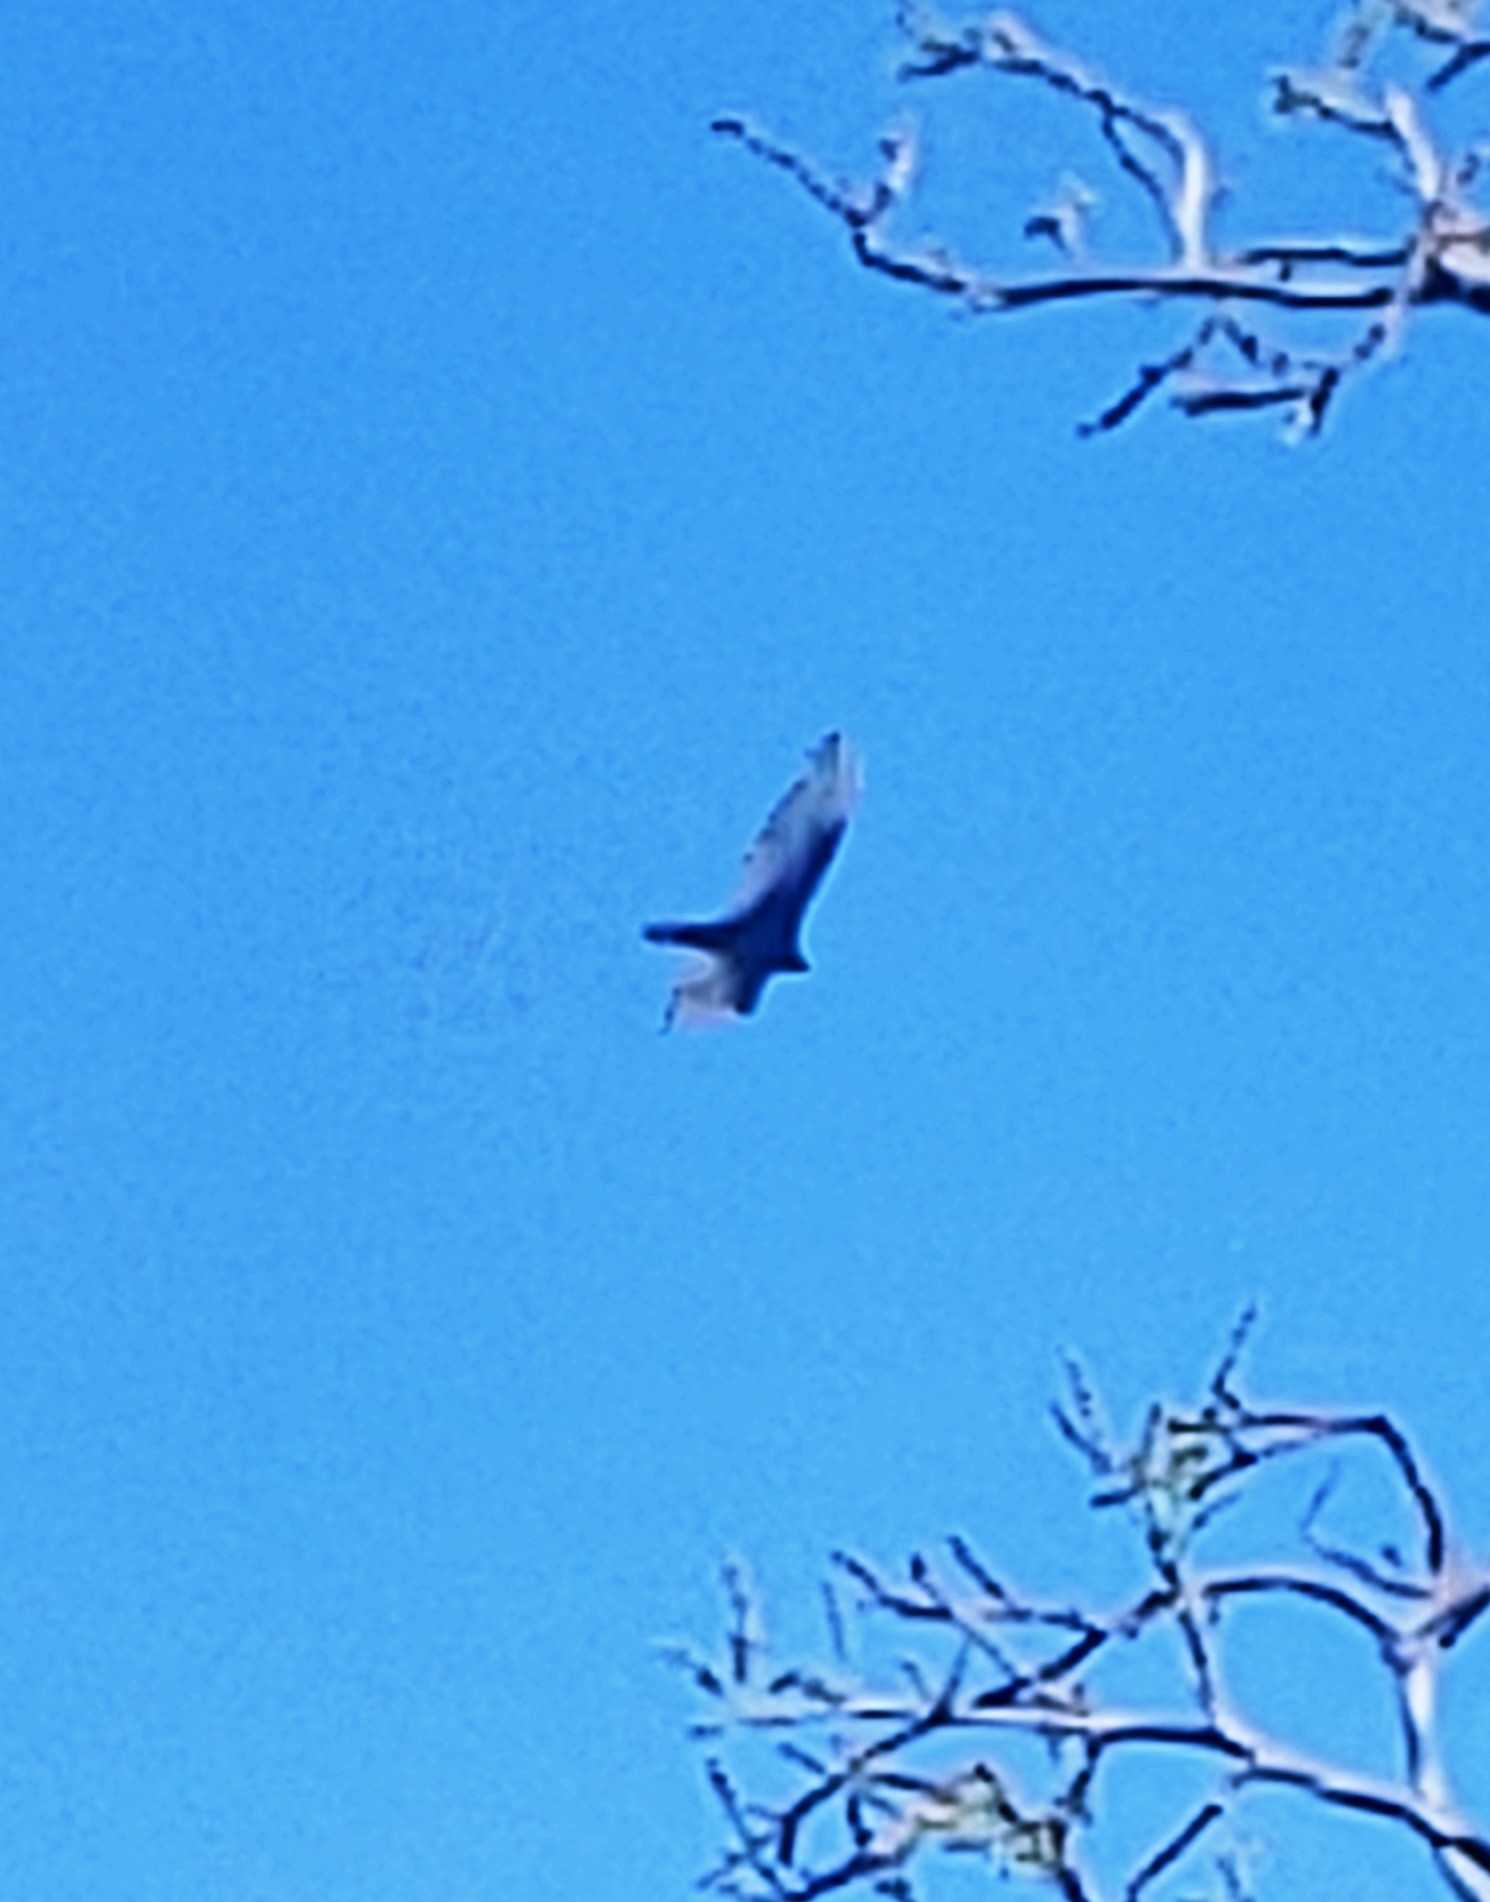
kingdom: Animalia
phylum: Chordata
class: Aves
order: Accipitriformes
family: Cathartidae
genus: Cathartes
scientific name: Cathartes aura
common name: Turkey vulture
